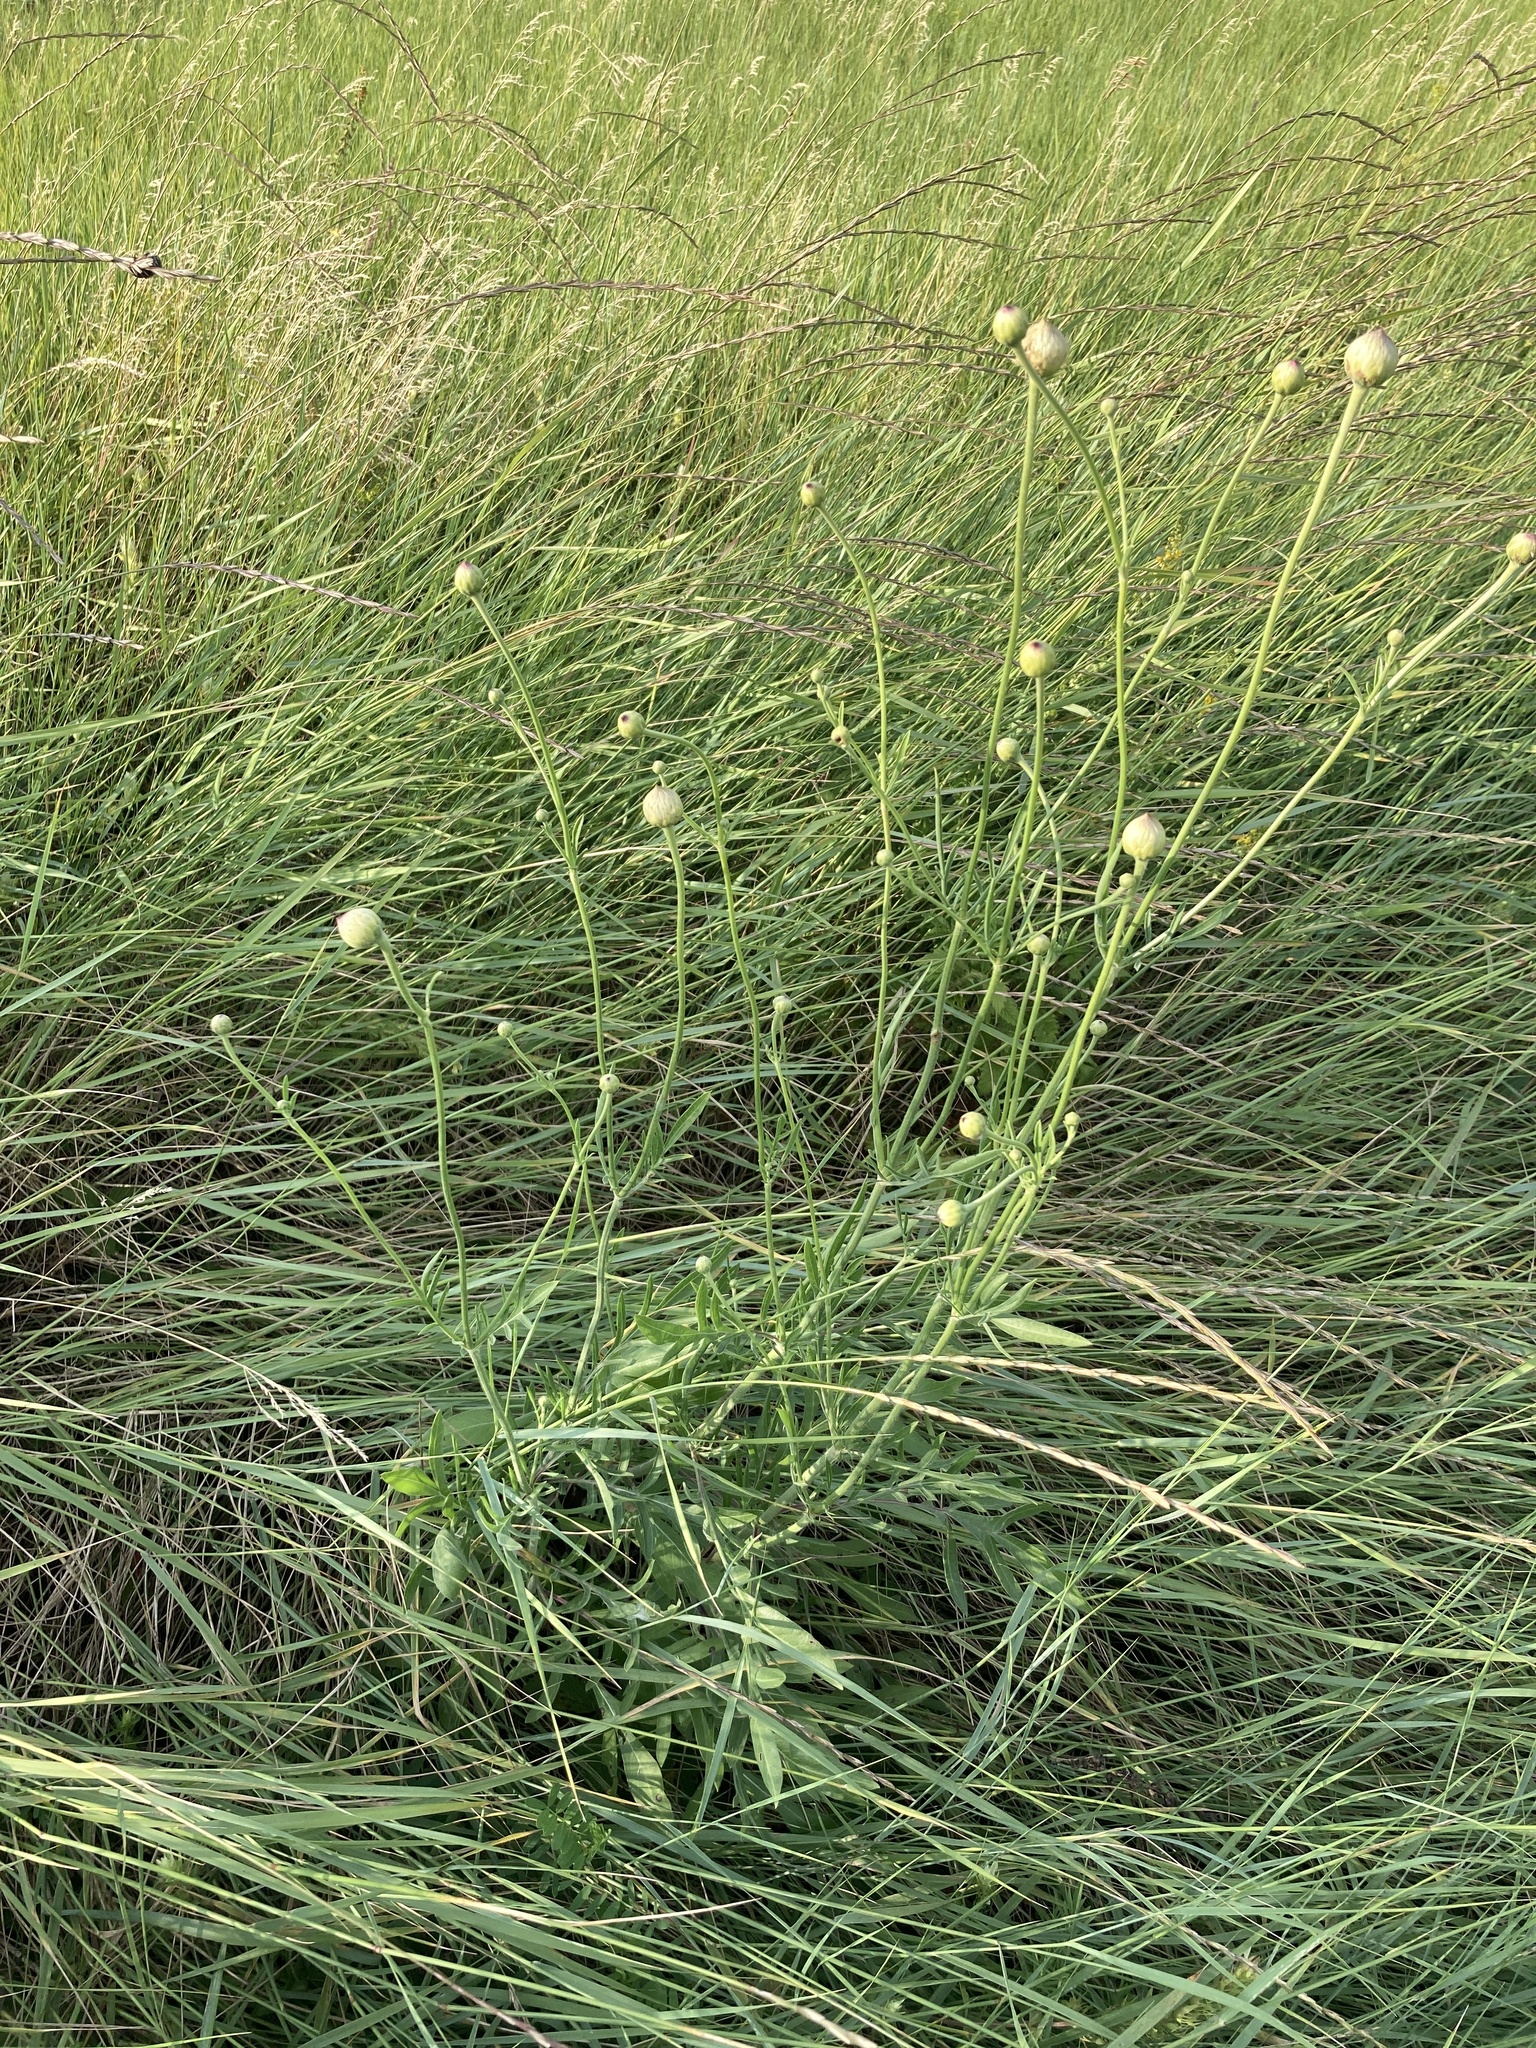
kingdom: Plantae
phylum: Tracheophyta
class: Magnoliopsida
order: Dipsacales
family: Caprifoliaceae
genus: Cephalaria
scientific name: Cephalaria uralensis
